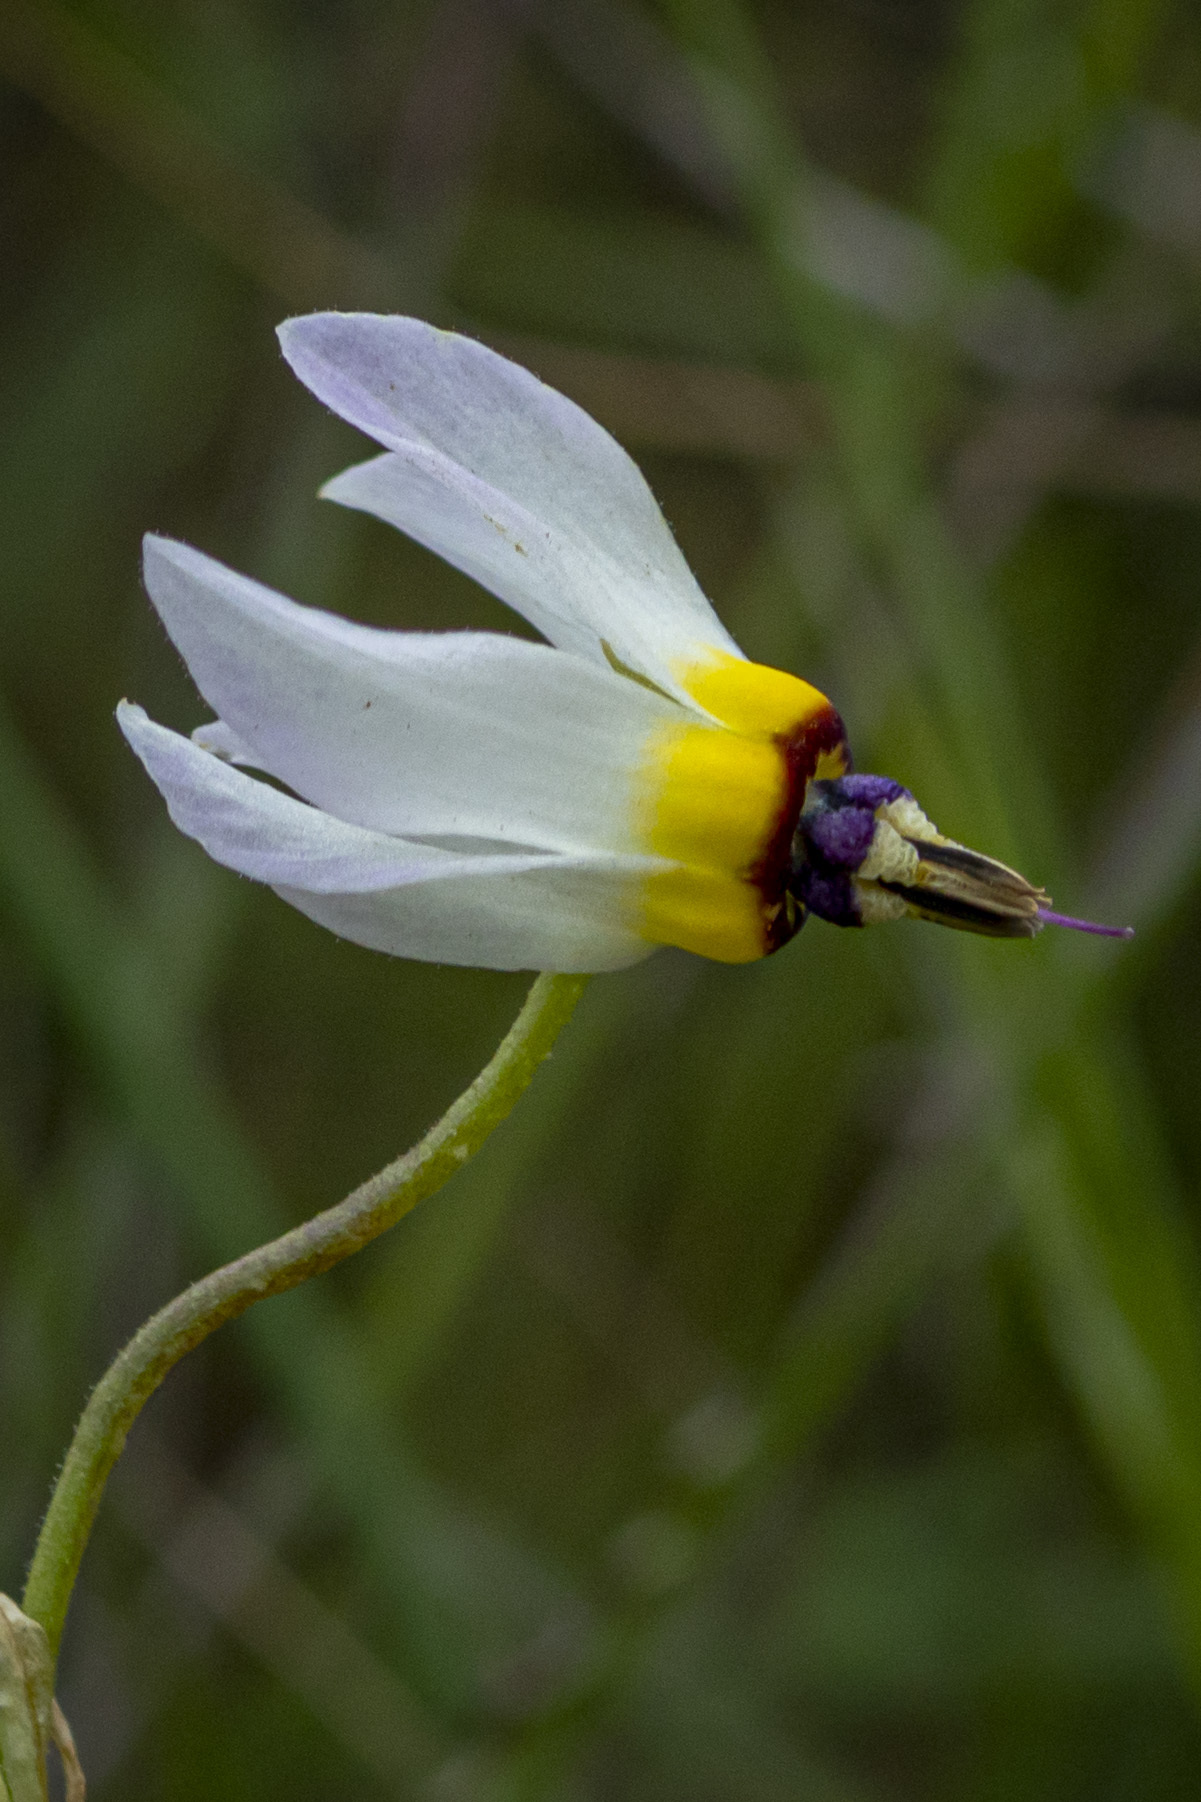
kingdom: Plantae
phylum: Tracheophyta
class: Magnoliopsida
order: Ericales
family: Primulaceae
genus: Dodecatheon
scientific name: Dodecatheon clevelandii
